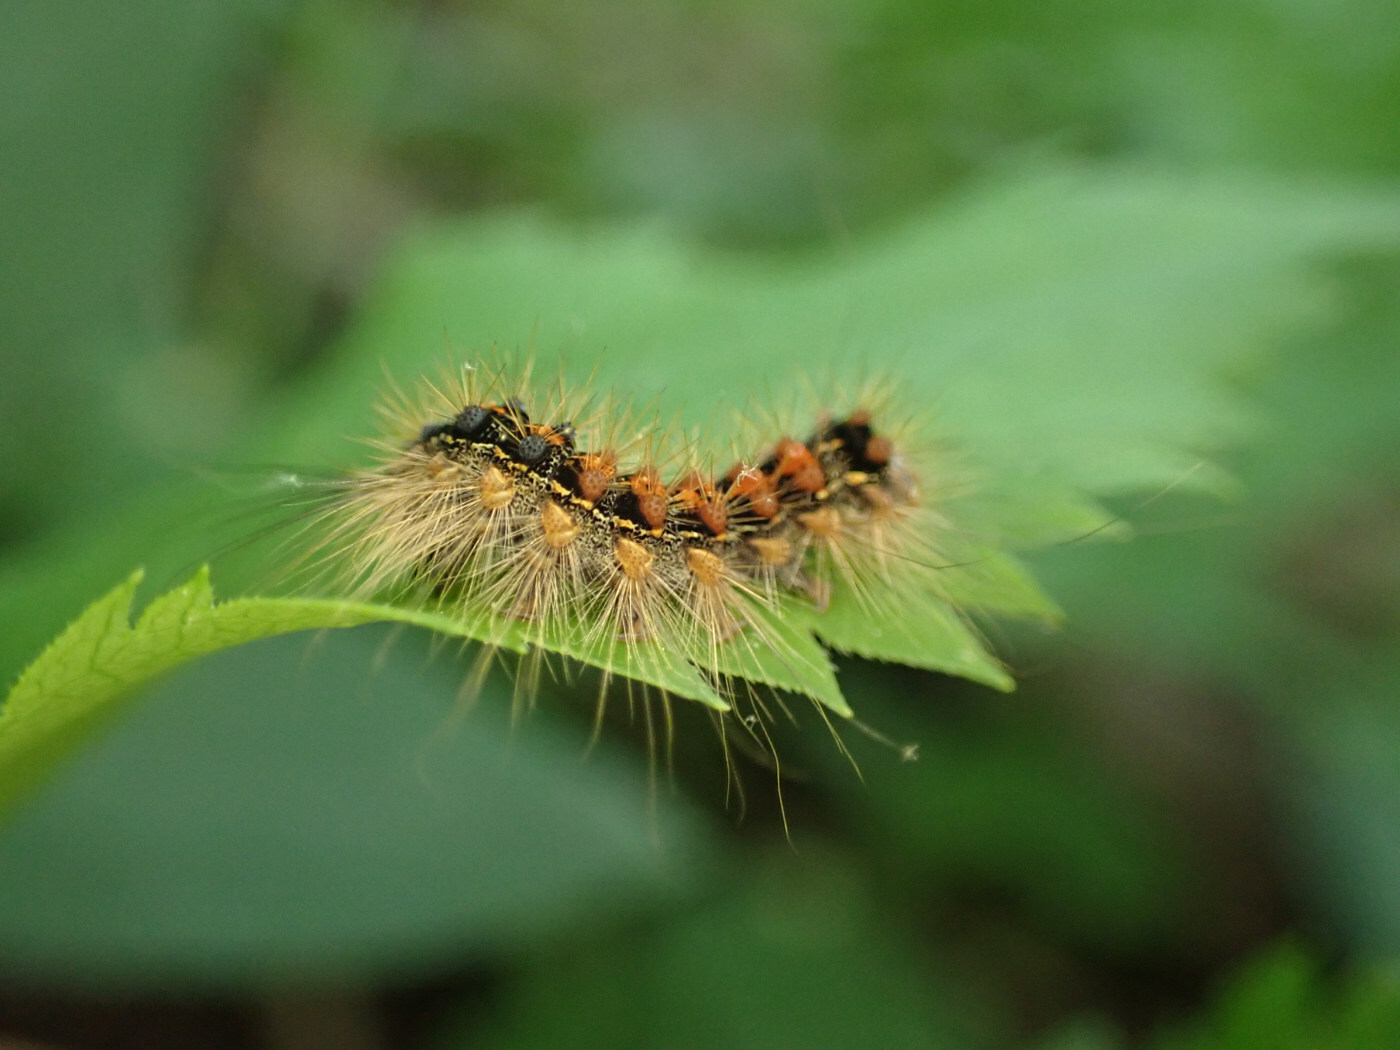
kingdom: Animalia
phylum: Arthropoda
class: Insecta
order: Lepidoptera
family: Erebidae
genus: Lymantria
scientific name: Lymantria dispar
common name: Gypsy moth
